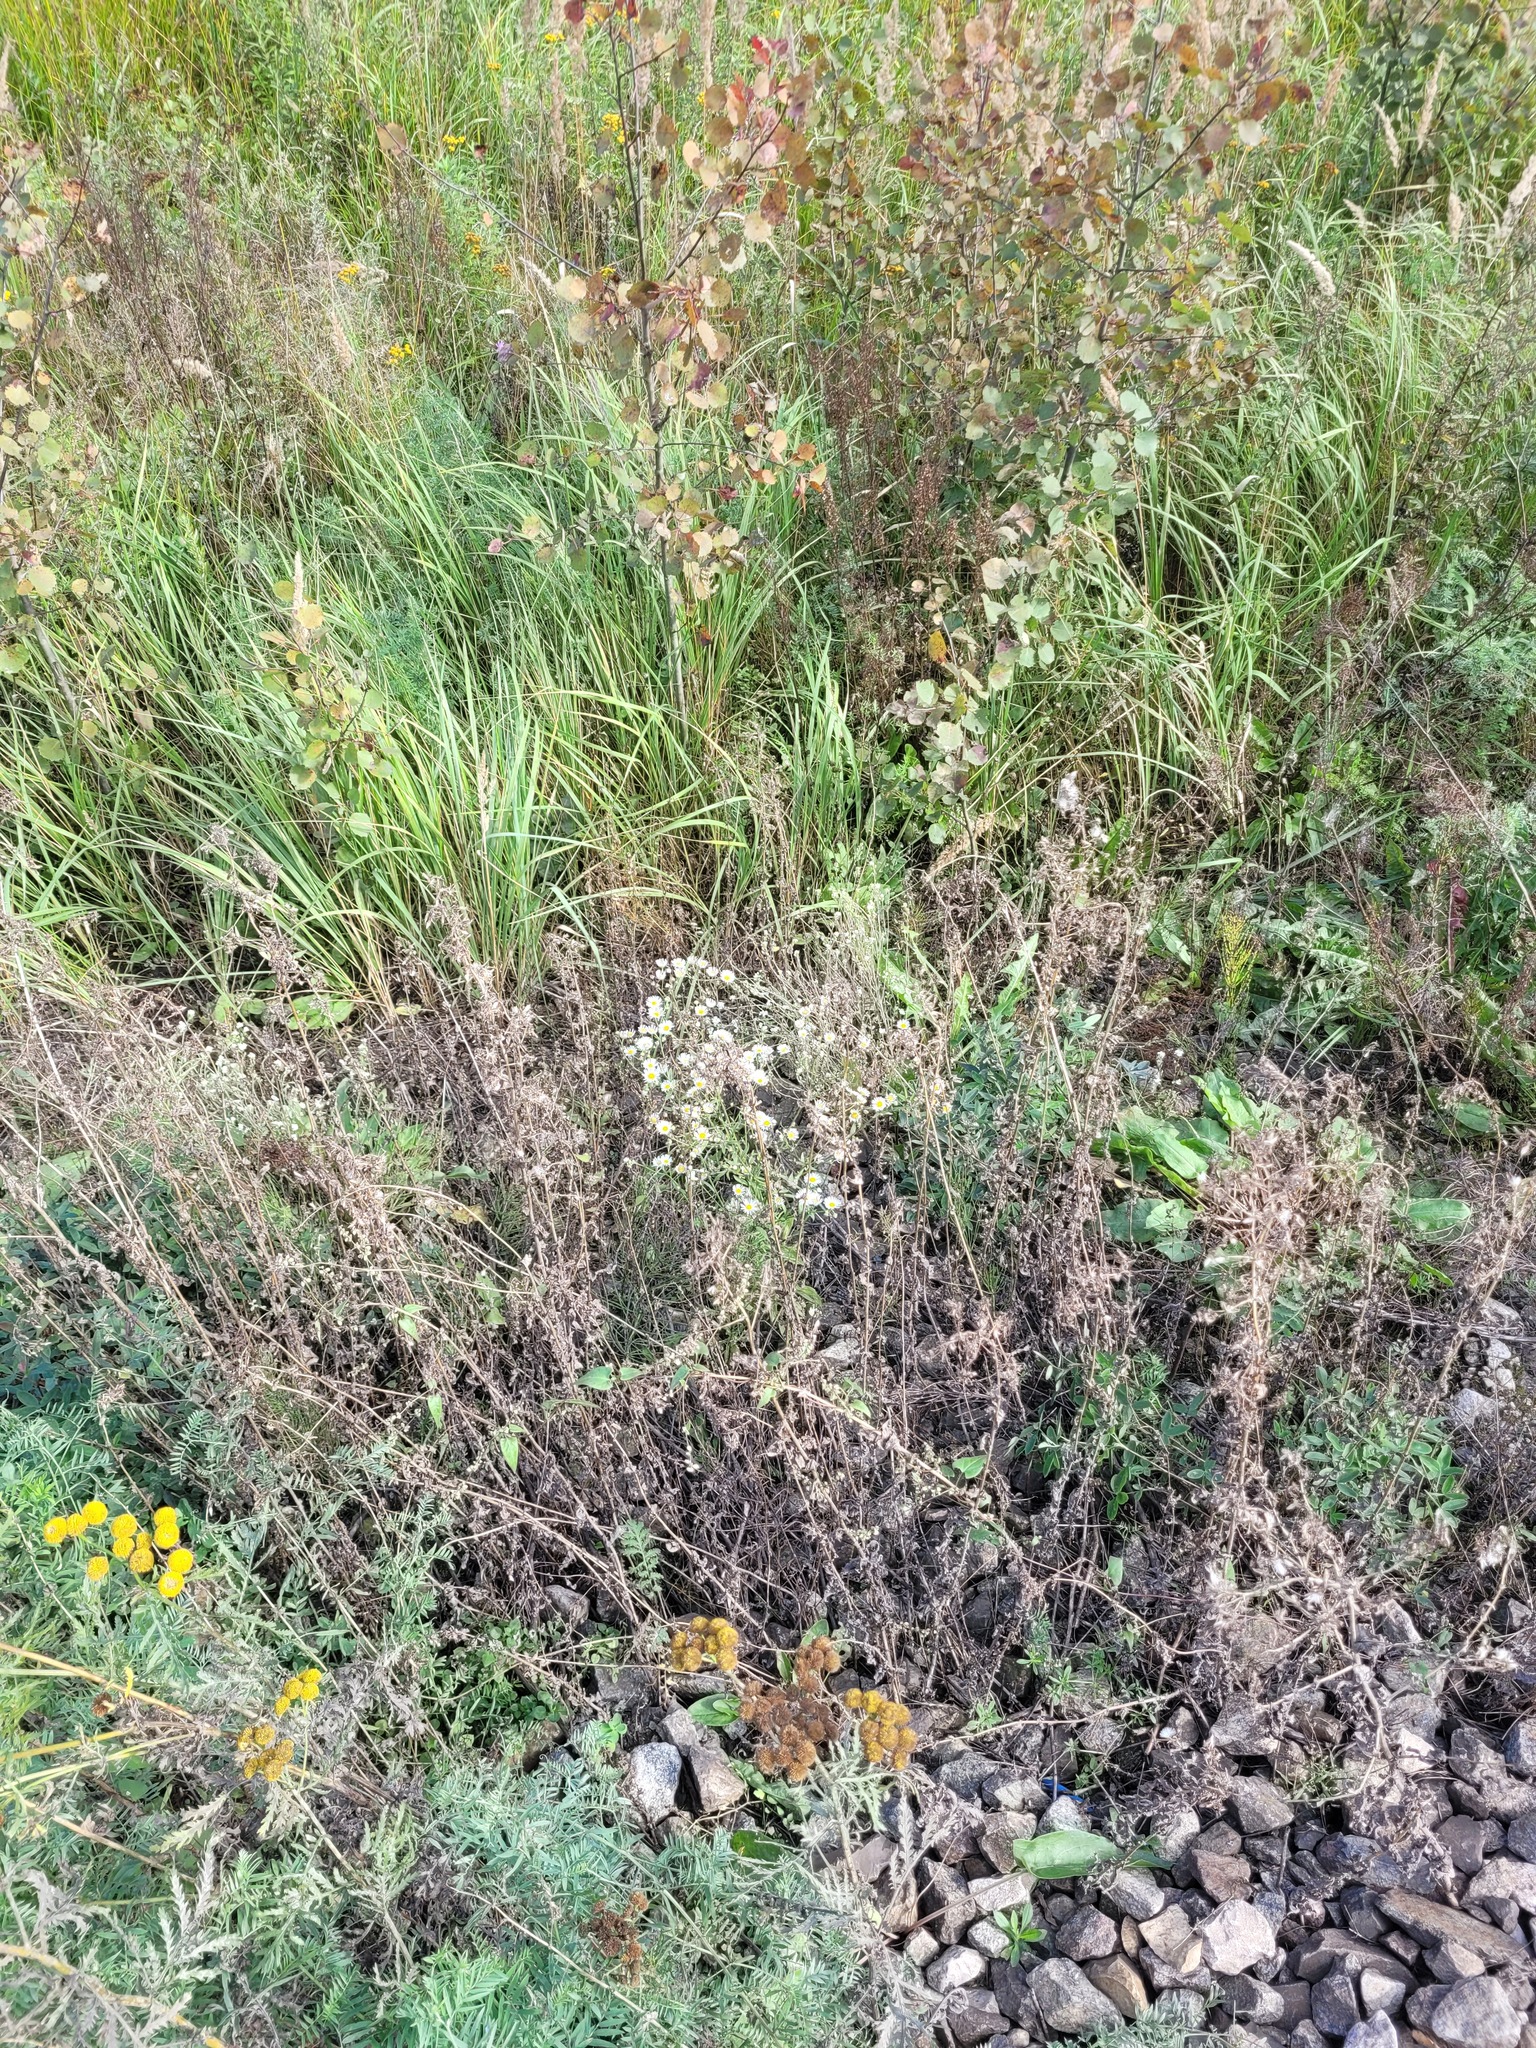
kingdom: Plantae
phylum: Tracheophyta
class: Magnoliopsida
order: Asterales
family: Asteraceae
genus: Erigeron
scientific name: Erigeron annuus
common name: Tall fleabane
